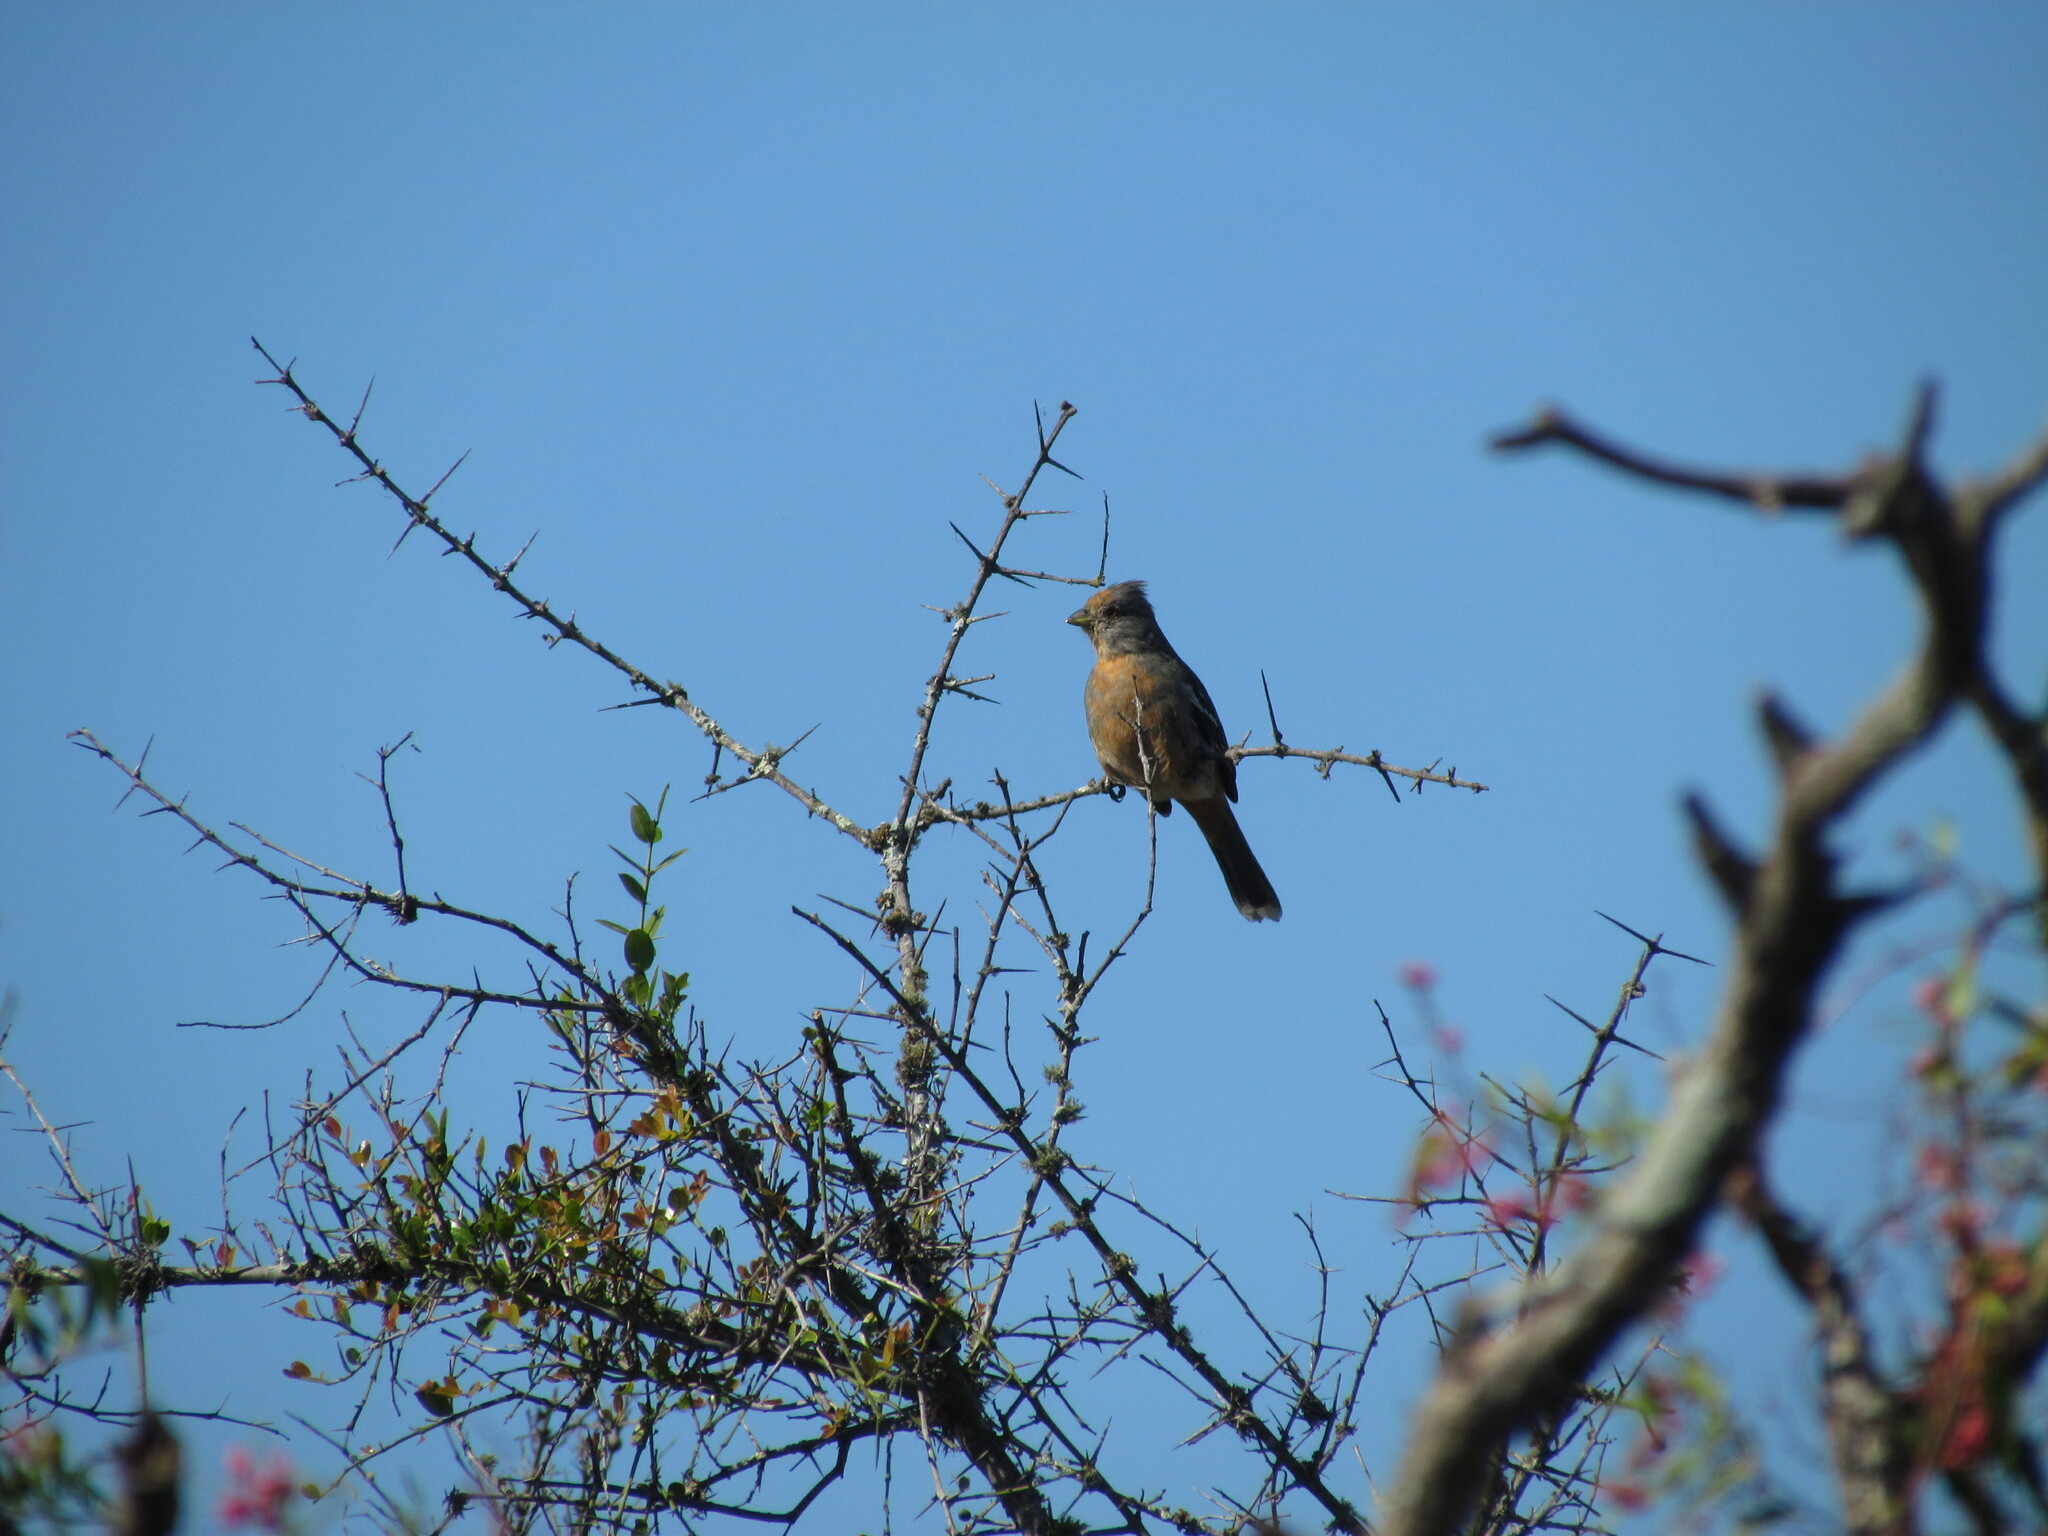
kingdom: Animalia
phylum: Chordata
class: Aves
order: Passeriformes
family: Cotingidae
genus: Phytotoma
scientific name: Phytotoma rutila
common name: White-tipped plantcutter
